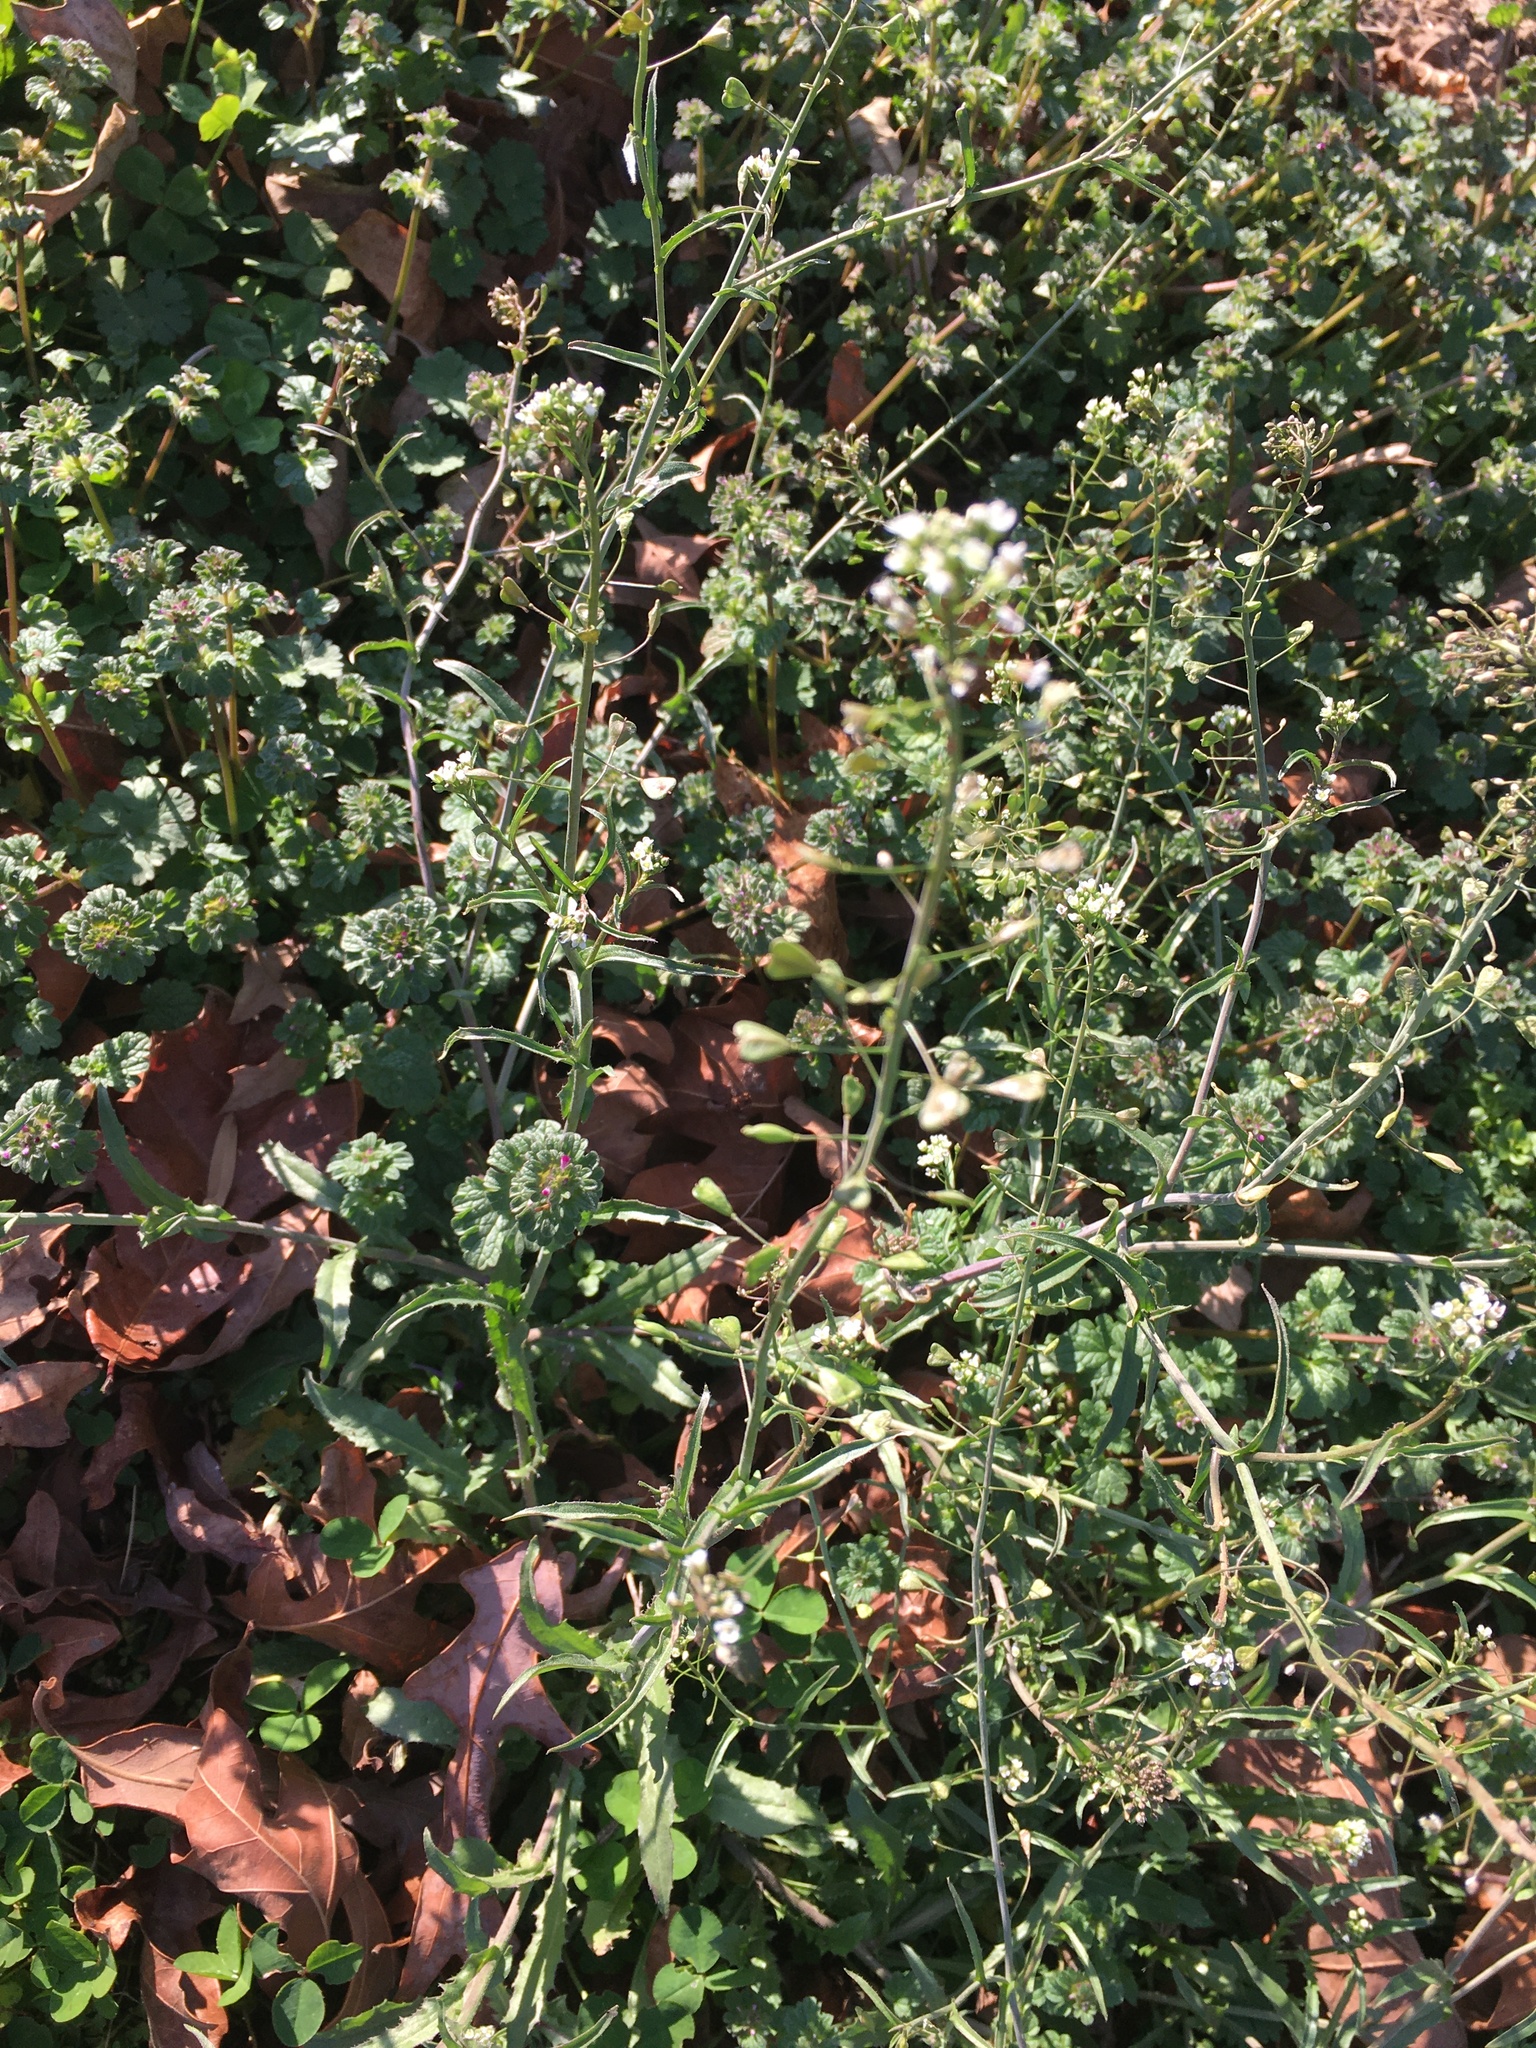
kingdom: Plantae
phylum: Tracheophyta
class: Magnoliopsida
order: Brassicales
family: Brassicaceae
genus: Capsella
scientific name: Capsella bursa-pastoris
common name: Shepherd's purse
